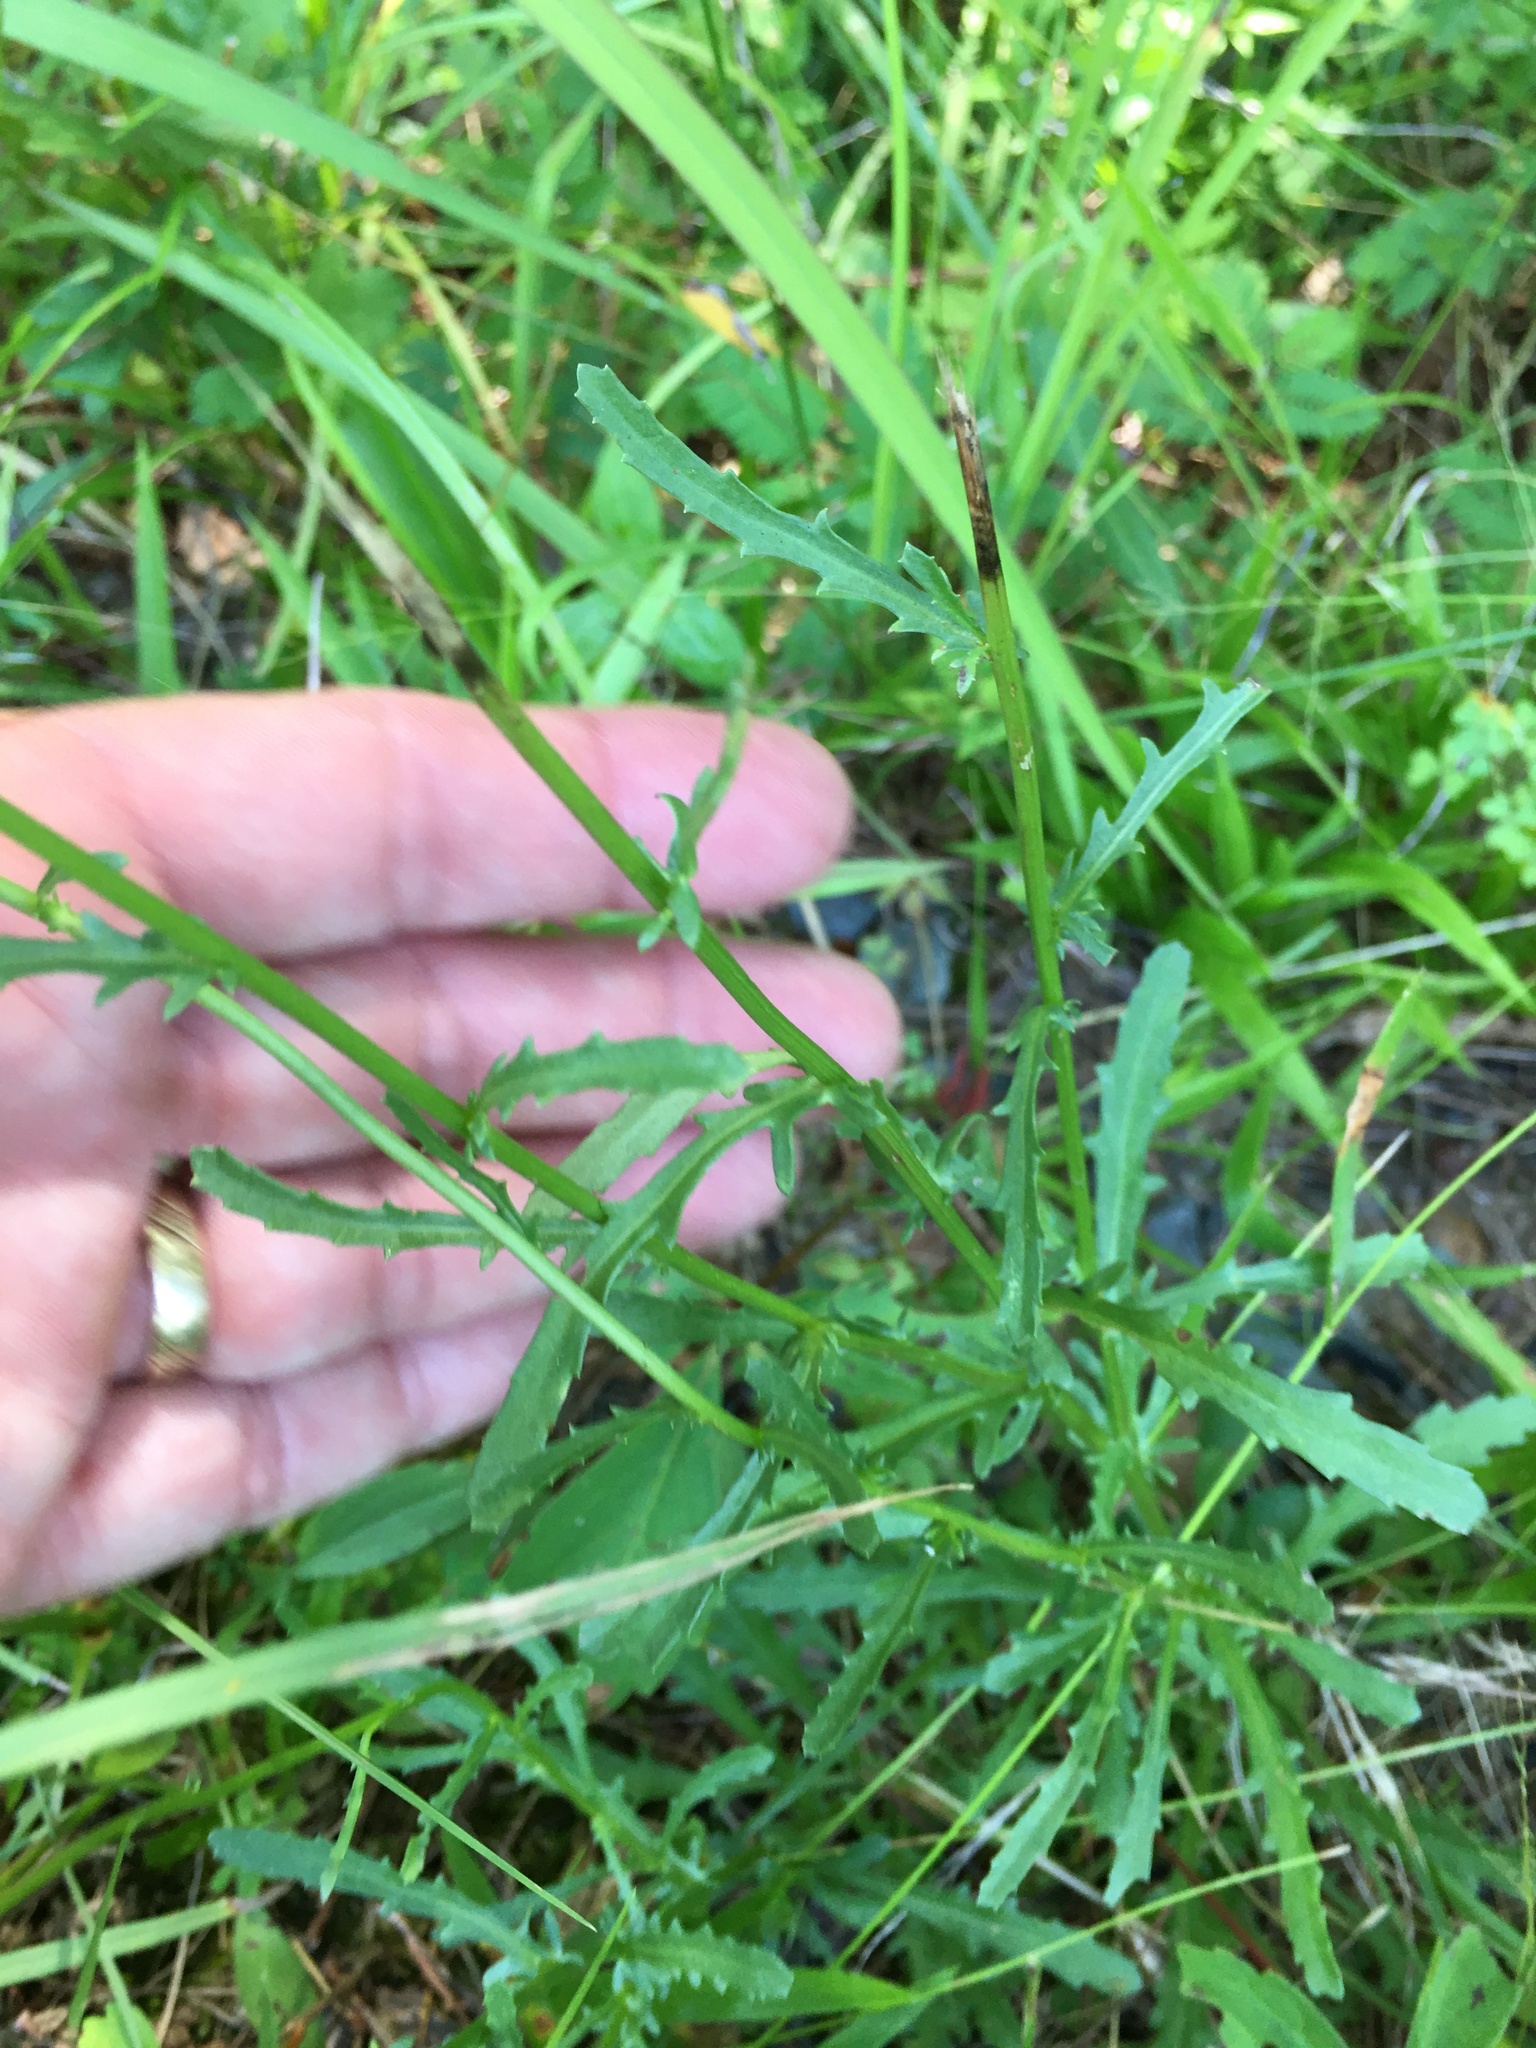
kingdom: Plantae
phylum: Tracheophyta
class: Magnoliopsida
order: Asterales
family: Asteraceae
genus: Leucanthemum
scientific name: Leucanthemum vulgare
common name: Oxeye daisy
